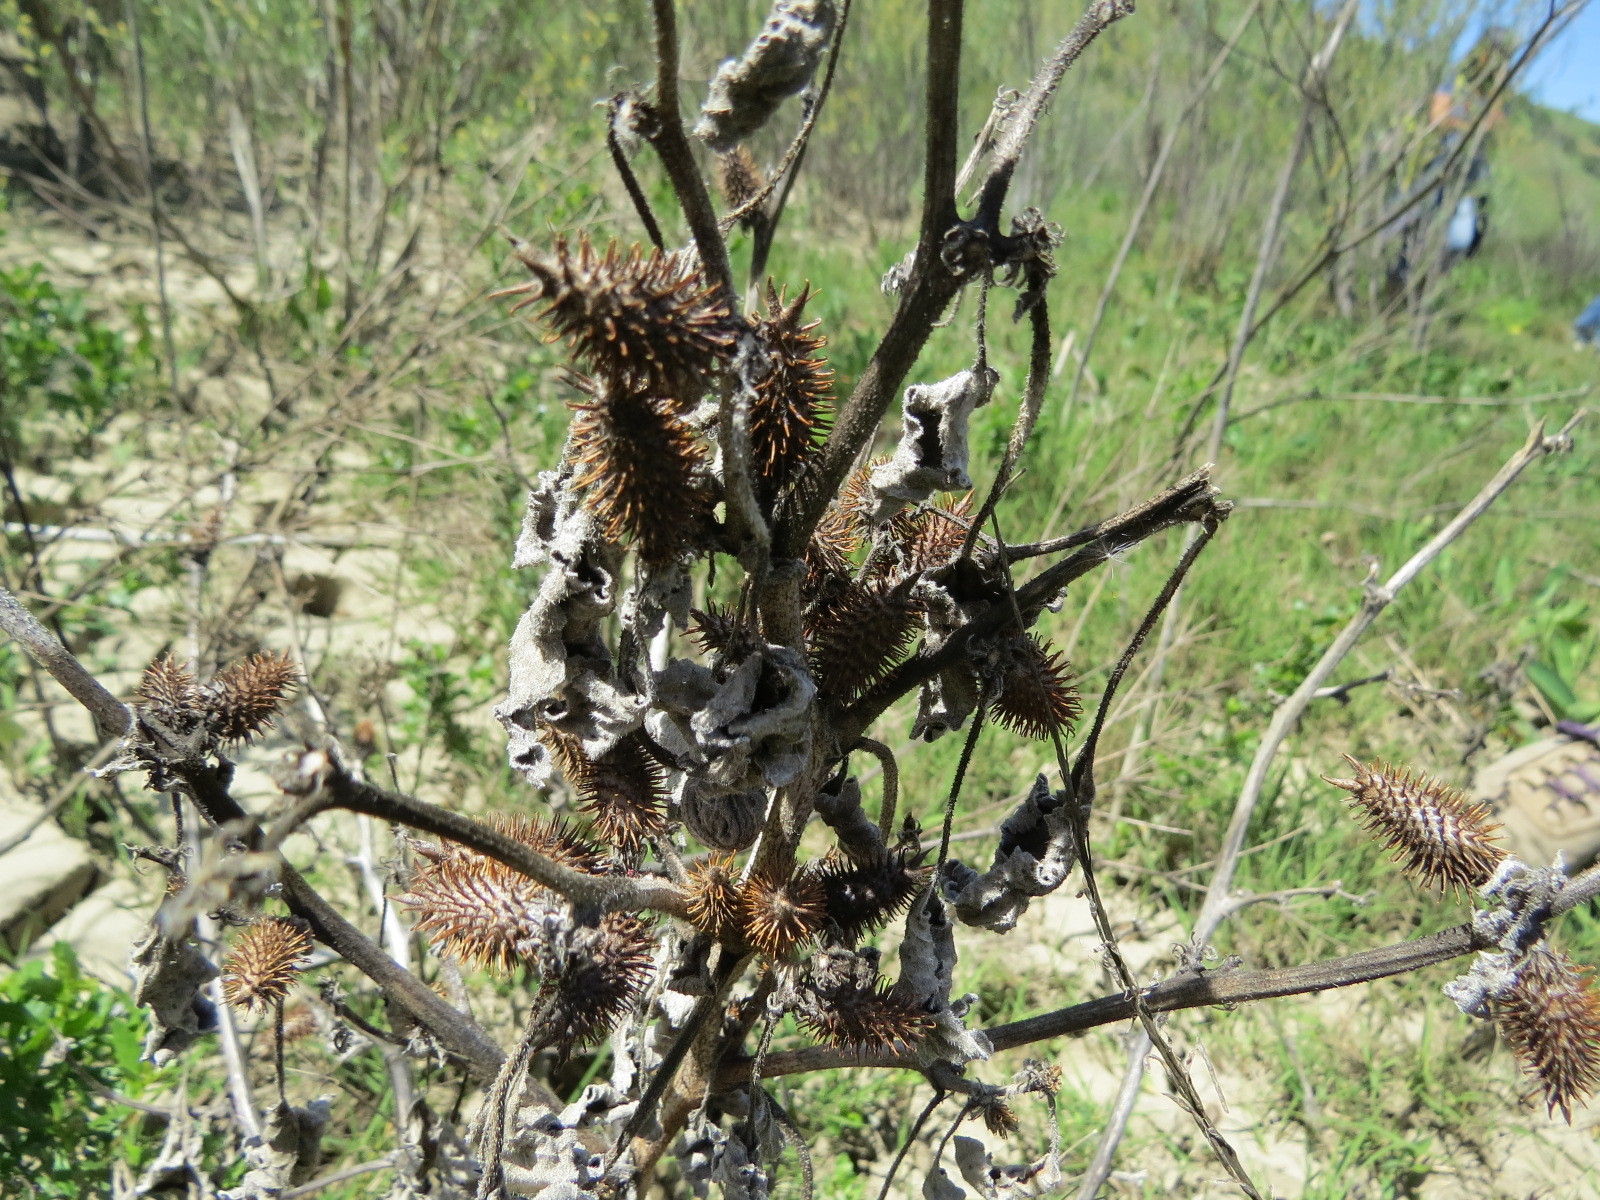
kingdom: Plantae
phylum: Tracheophyta
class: Magnoliopsida
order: Asterales
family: Asteraceae
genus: Xanthium
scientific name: Xanthium strumarium
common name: Rough cocklebur
